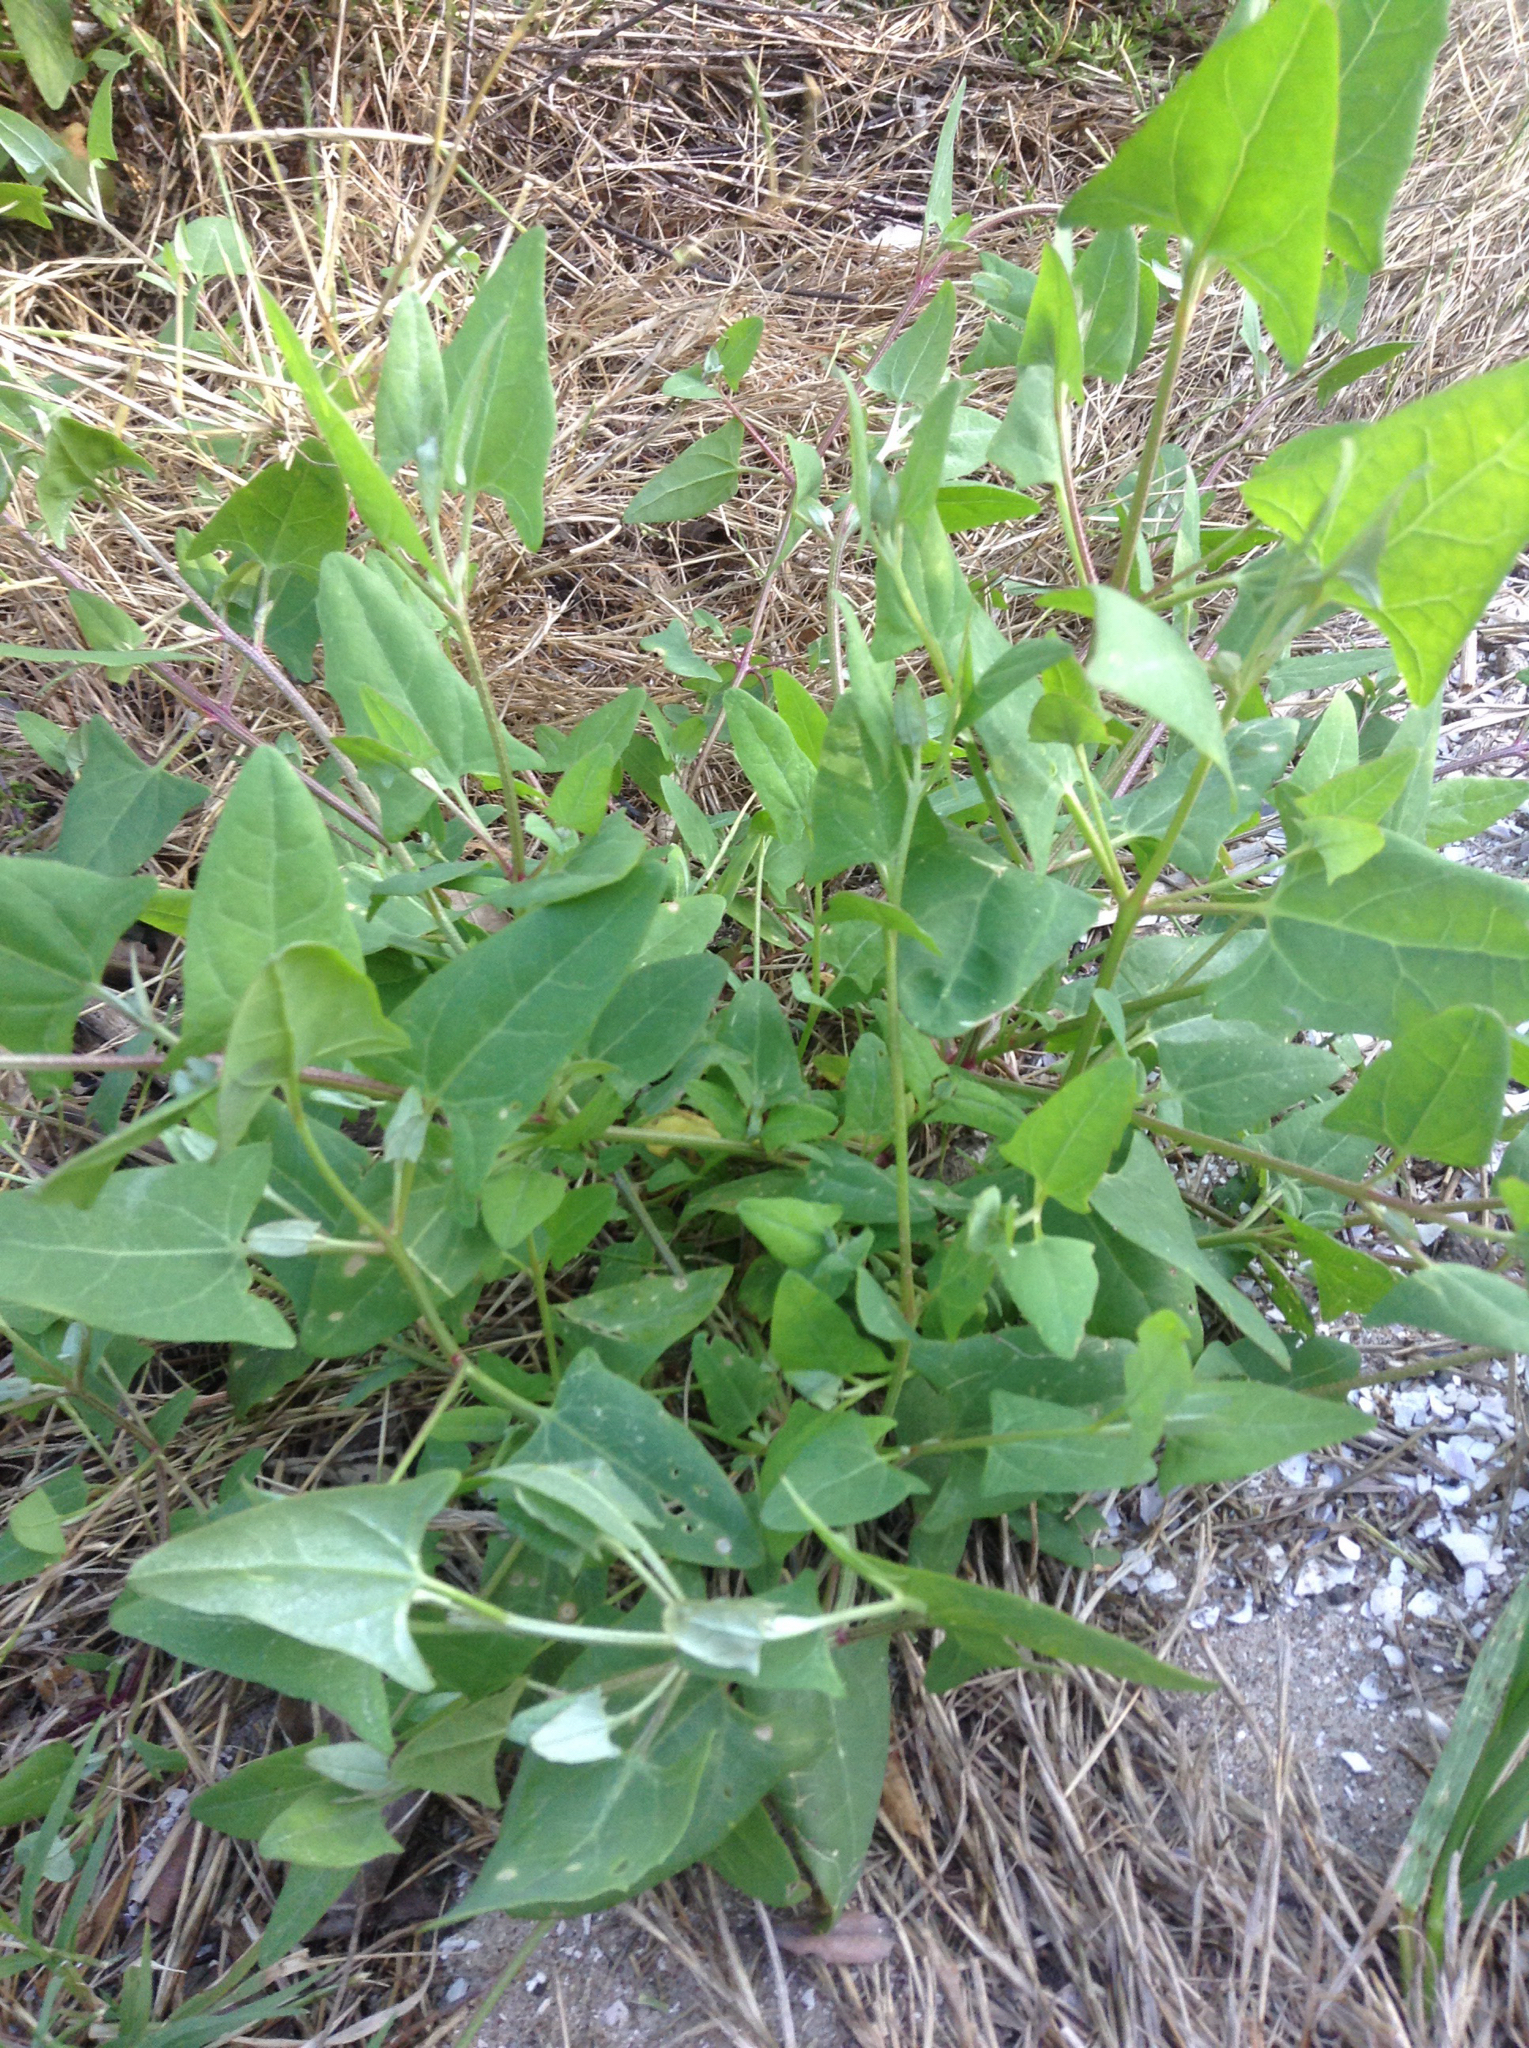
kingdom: Plantae
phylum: Tracheophyta
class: Magnoliopsida
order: Caryophyllales
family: Amaranthaceae
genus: Atriplex
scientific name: Atriplex prostrata
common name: Spear-leaved orache
